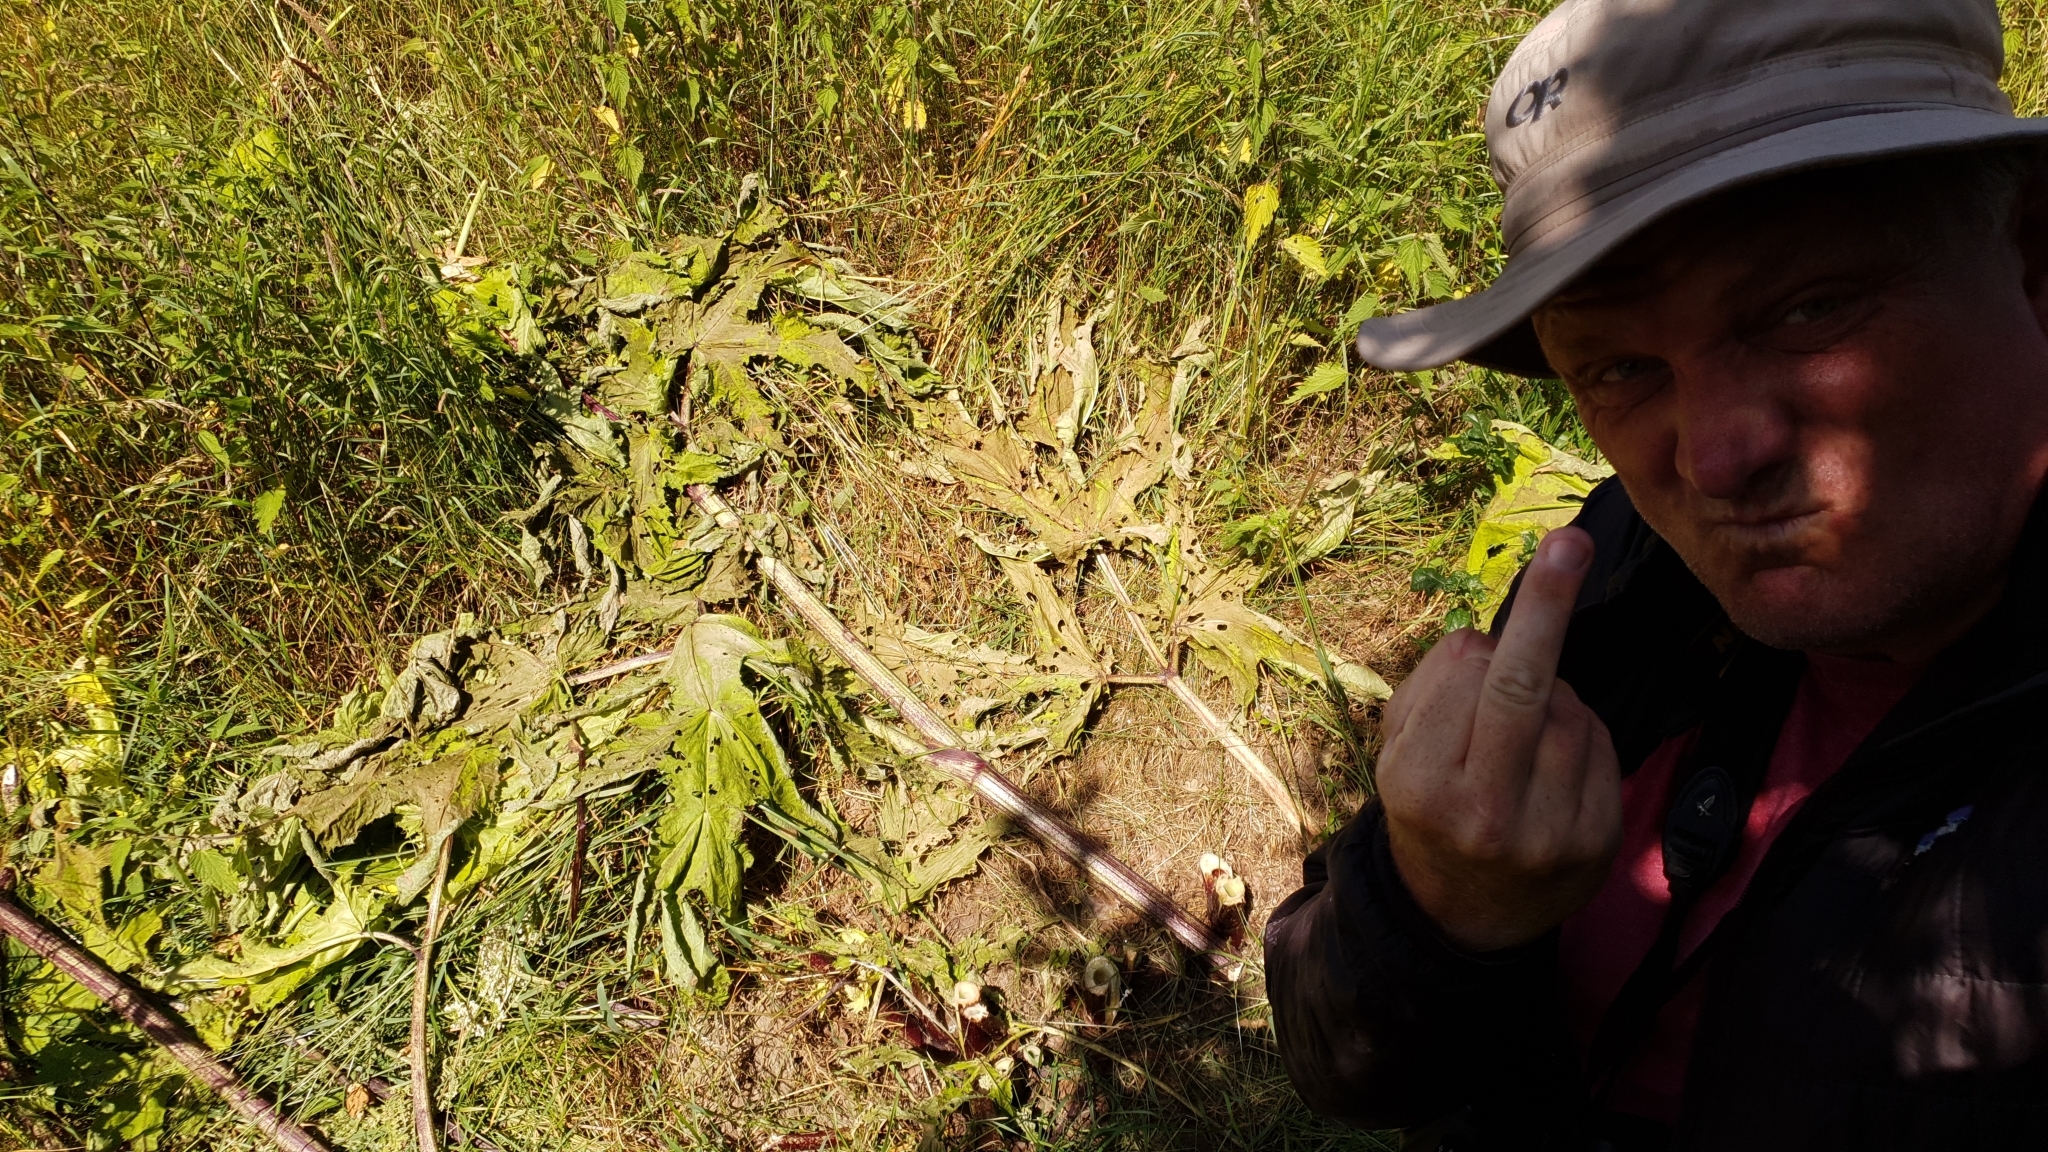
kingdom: Plantae
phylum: Tracheophyta
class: Magnoliopsida
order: Apiales
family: Apiaceae
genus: Heracleum
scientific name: Heracleum mantegazzianum
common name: Giant hogweed
